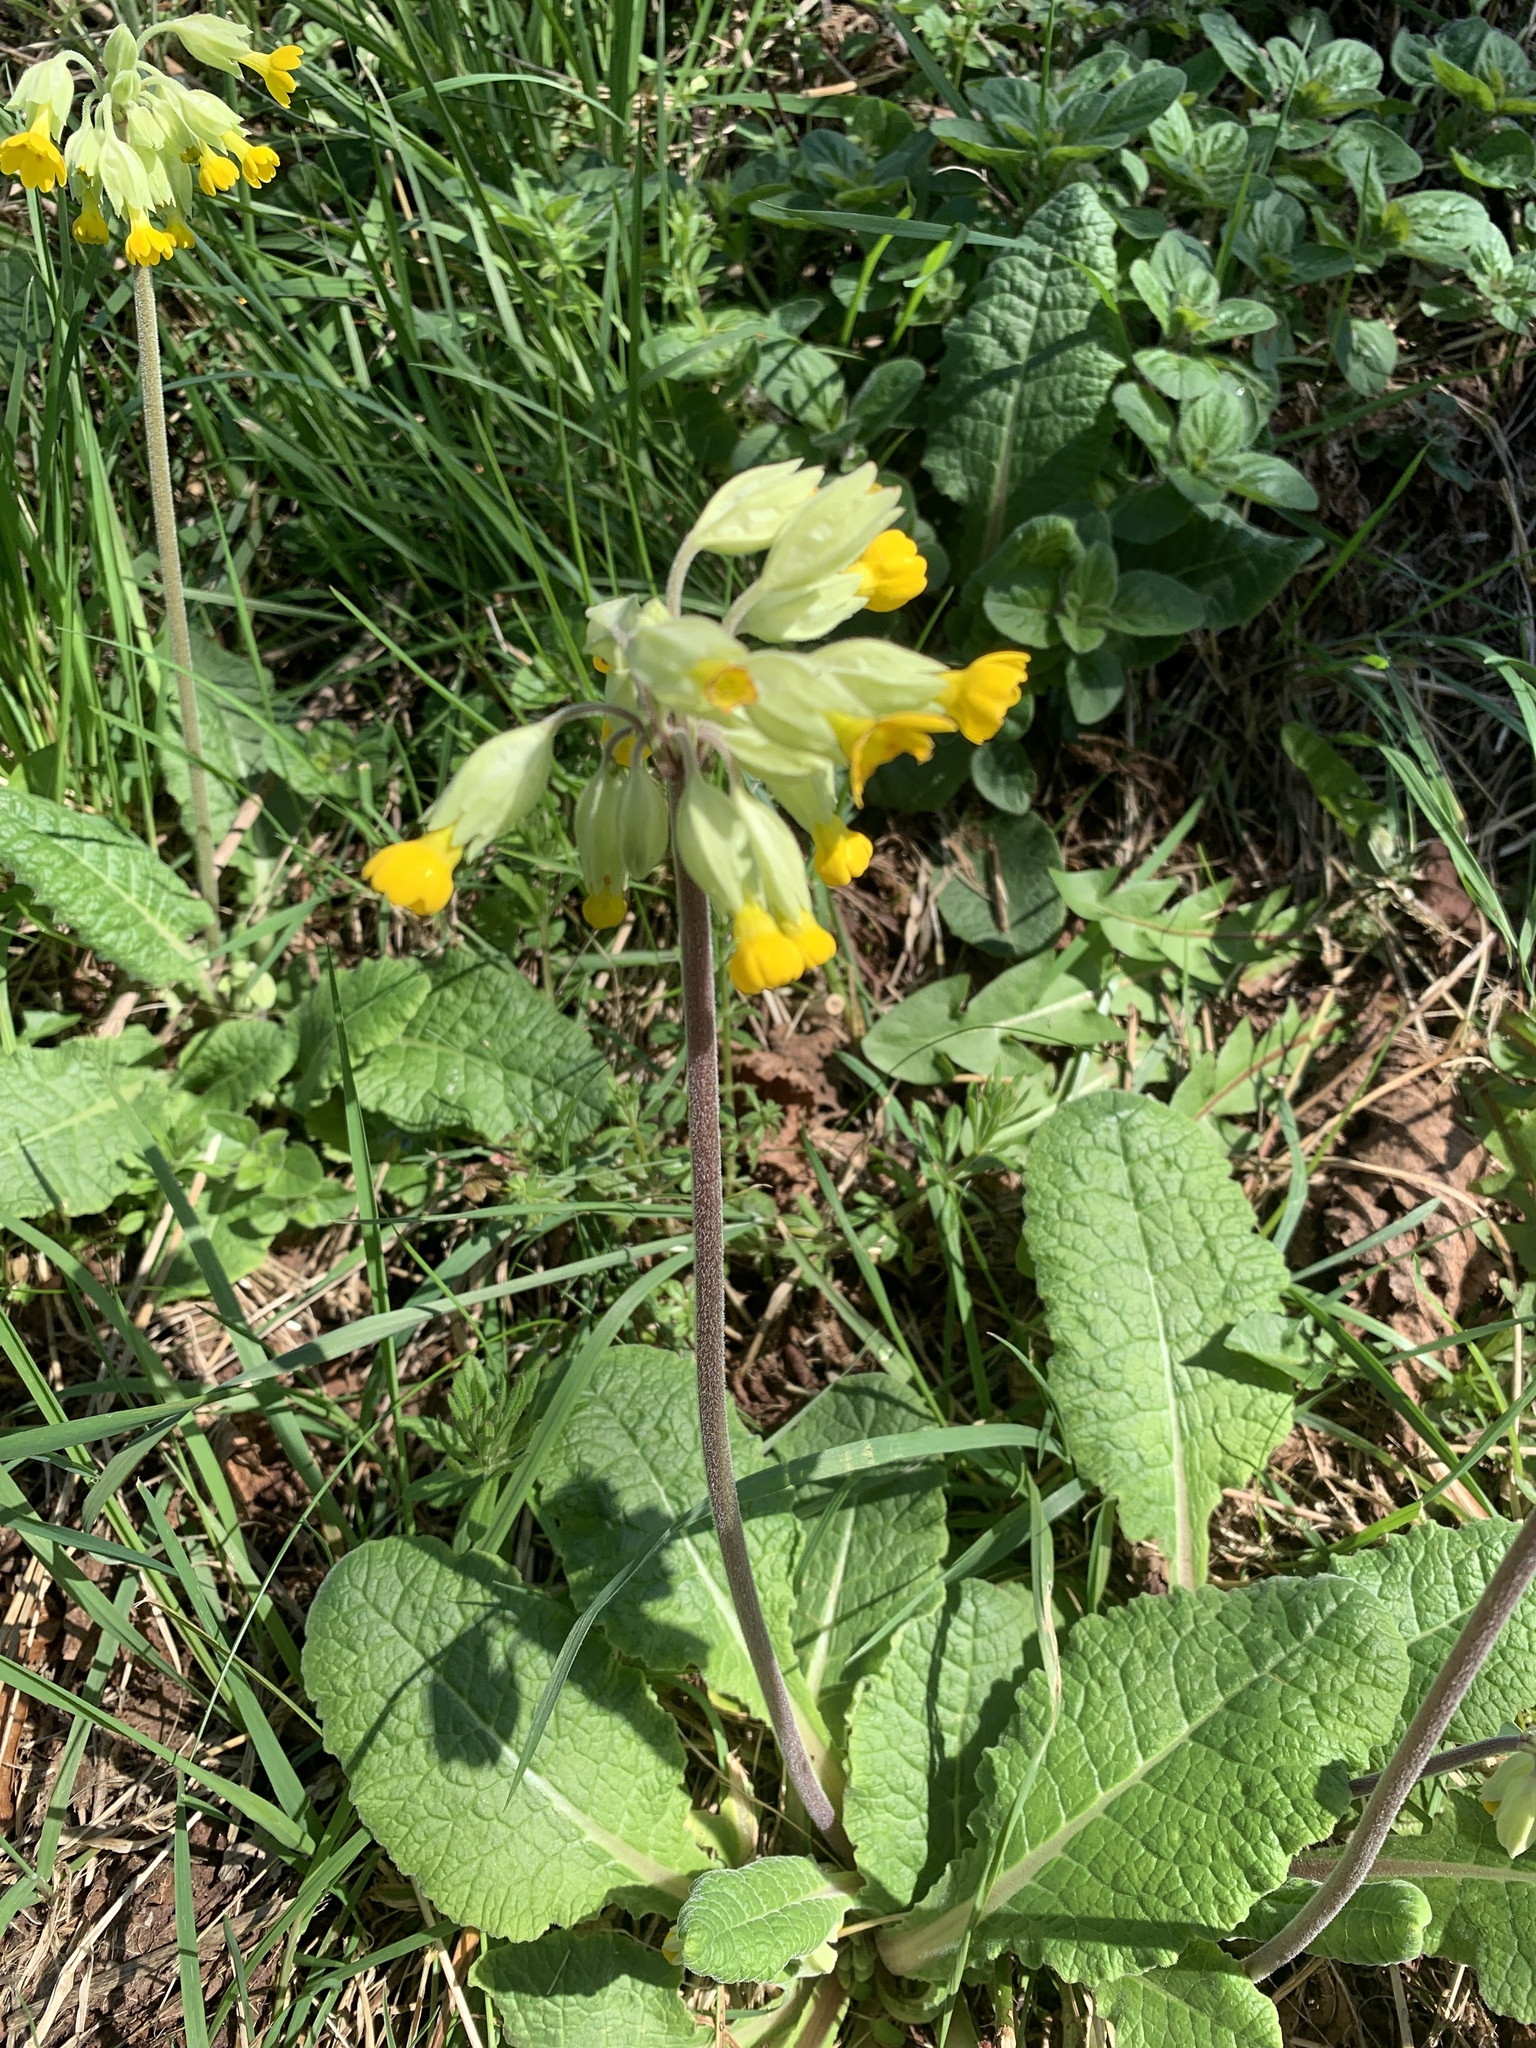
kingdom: Plantae
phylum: Tracheophyta
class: Magnoliopsida
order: Ericales
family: Primulaceae
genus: Primula
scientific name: Primula veris
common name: Cowslip
